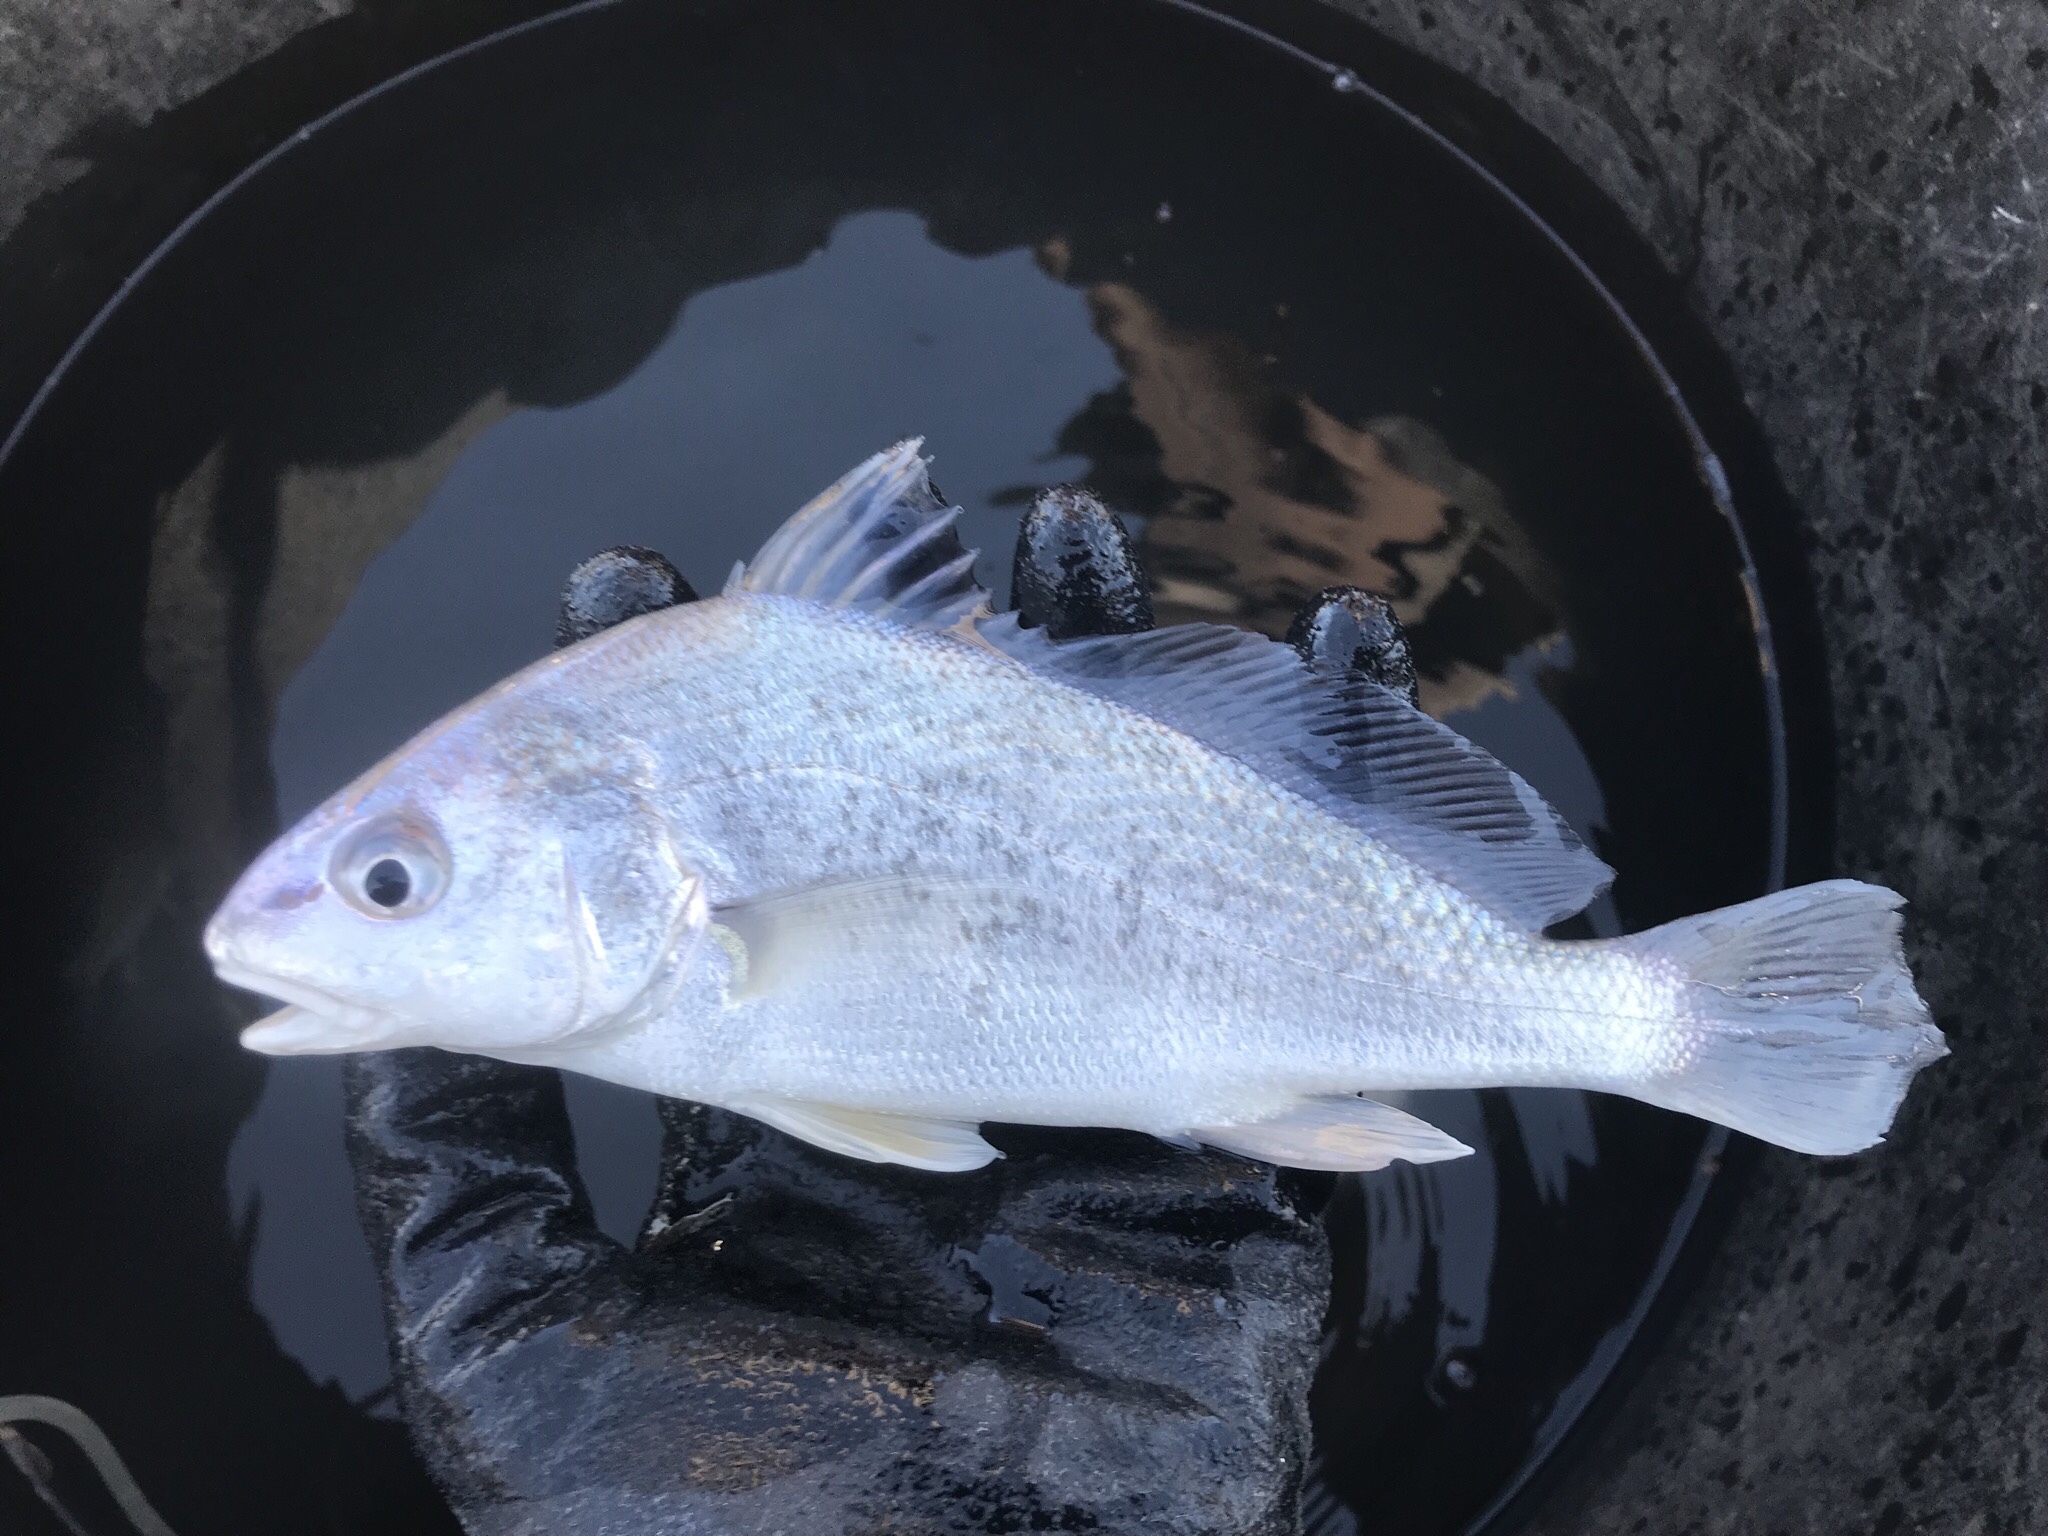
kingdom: Animalia
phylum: Chordata
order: Perciformes
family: Sciaenidae
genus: Aplodinotus
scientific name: Aplodinotus grunniens
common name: Freshwater drum
